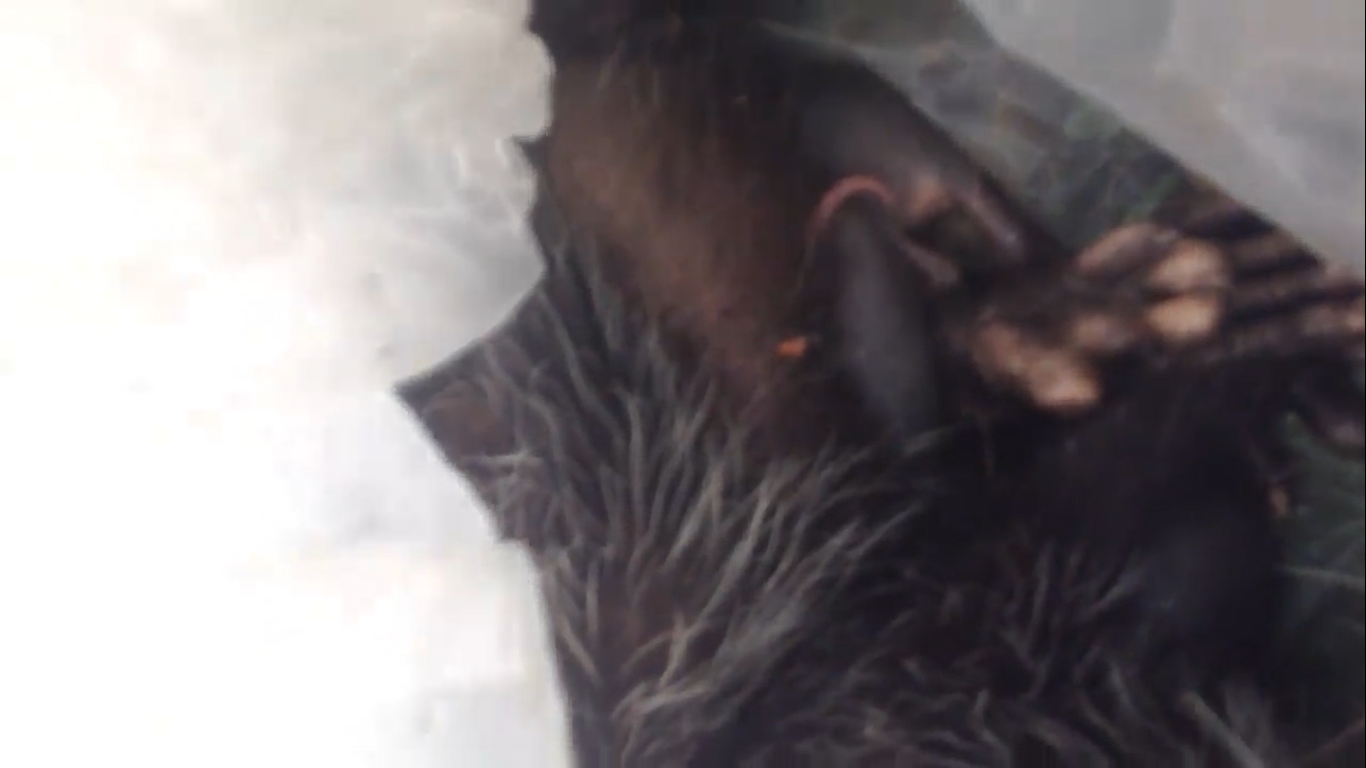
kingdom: Animalia
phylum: Chordata
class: Mammalia
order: Didelphimorphia
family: Didelphidae
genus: Didelphis
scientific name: Didelphis virginiana
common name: Virginia opossum
